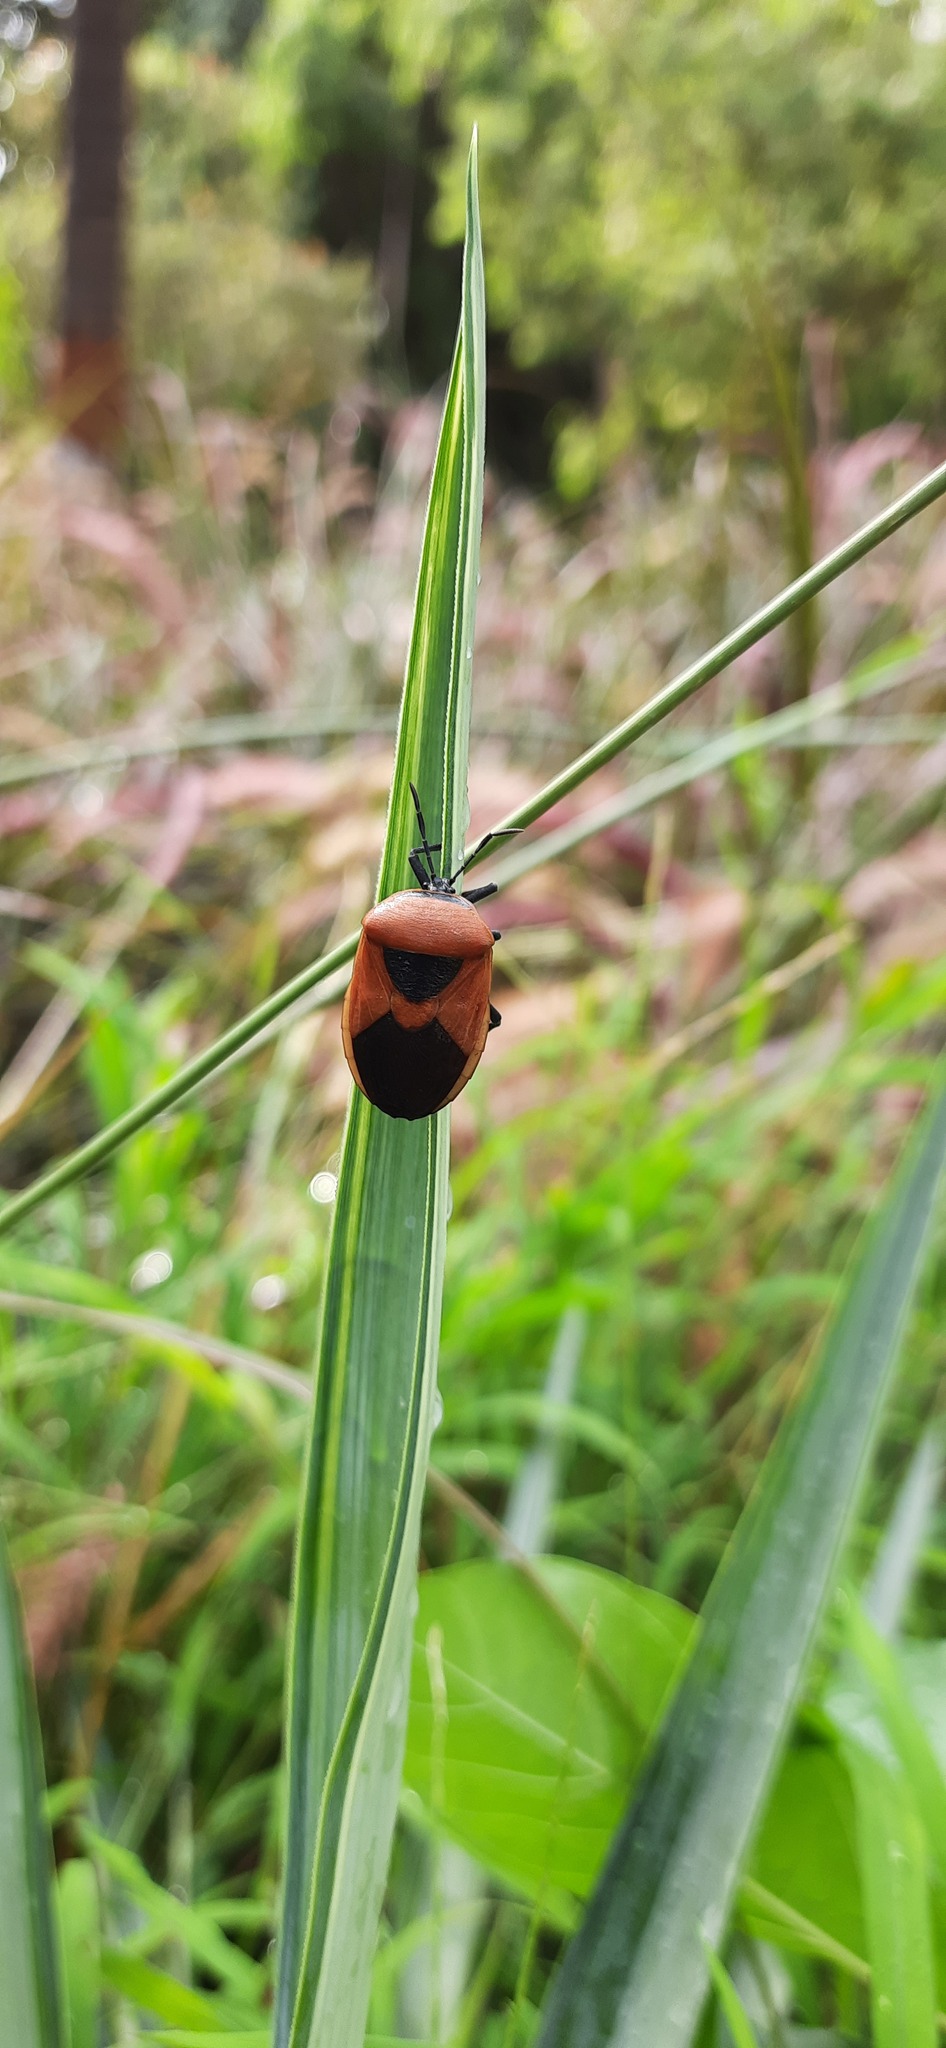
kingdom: Animalia
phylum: Arthropoda
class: Insecta
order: Hemiptera
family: Dinidoridae
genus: Coridius
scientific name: Coridius ianus
